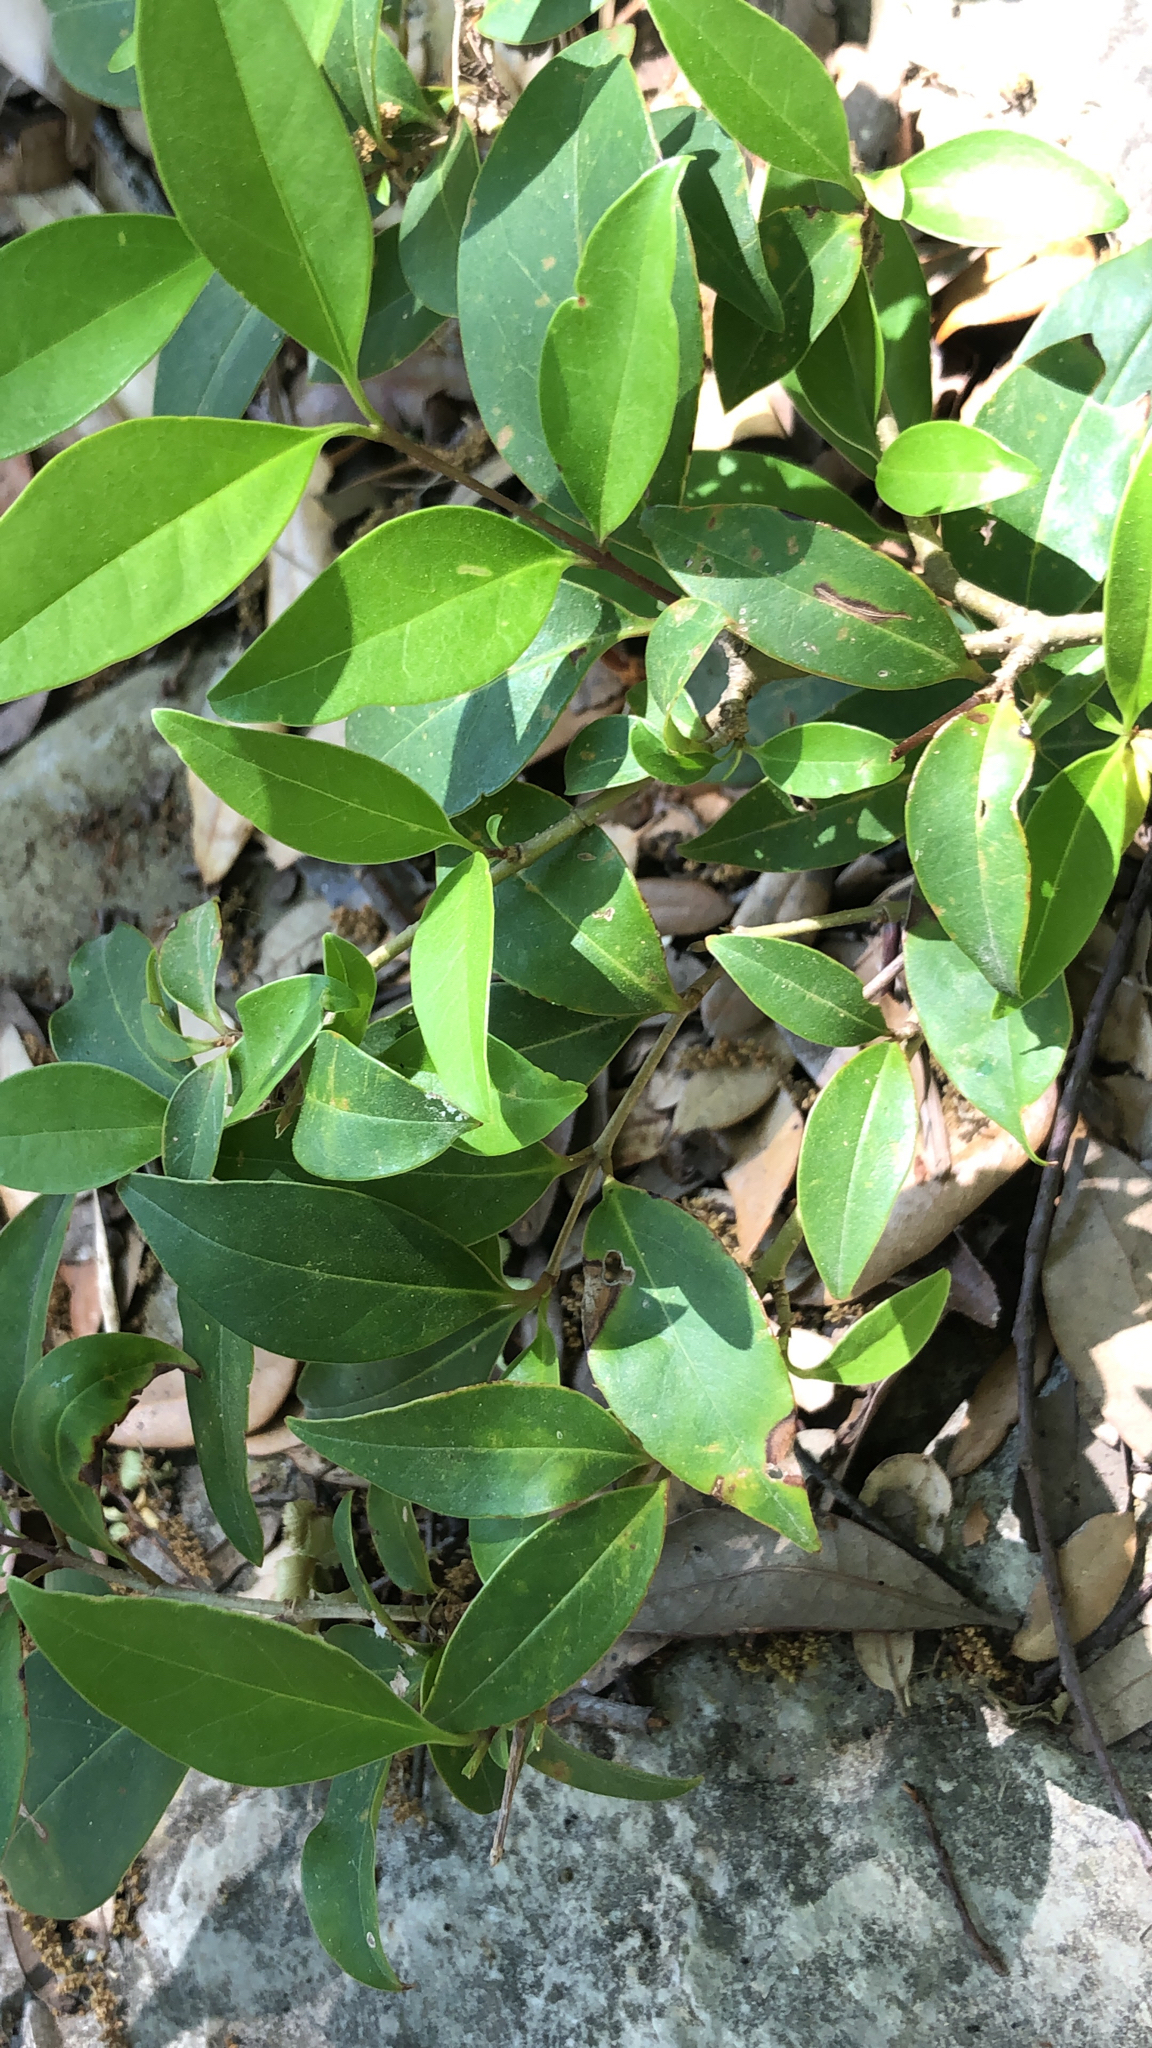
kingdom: Plantae
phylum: Tracheophyta
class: Magnoliopsida
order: Lamiales
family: Oleaceae
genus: Ligustrum
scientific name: Ligustrum lucidum
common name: Glossy privet
